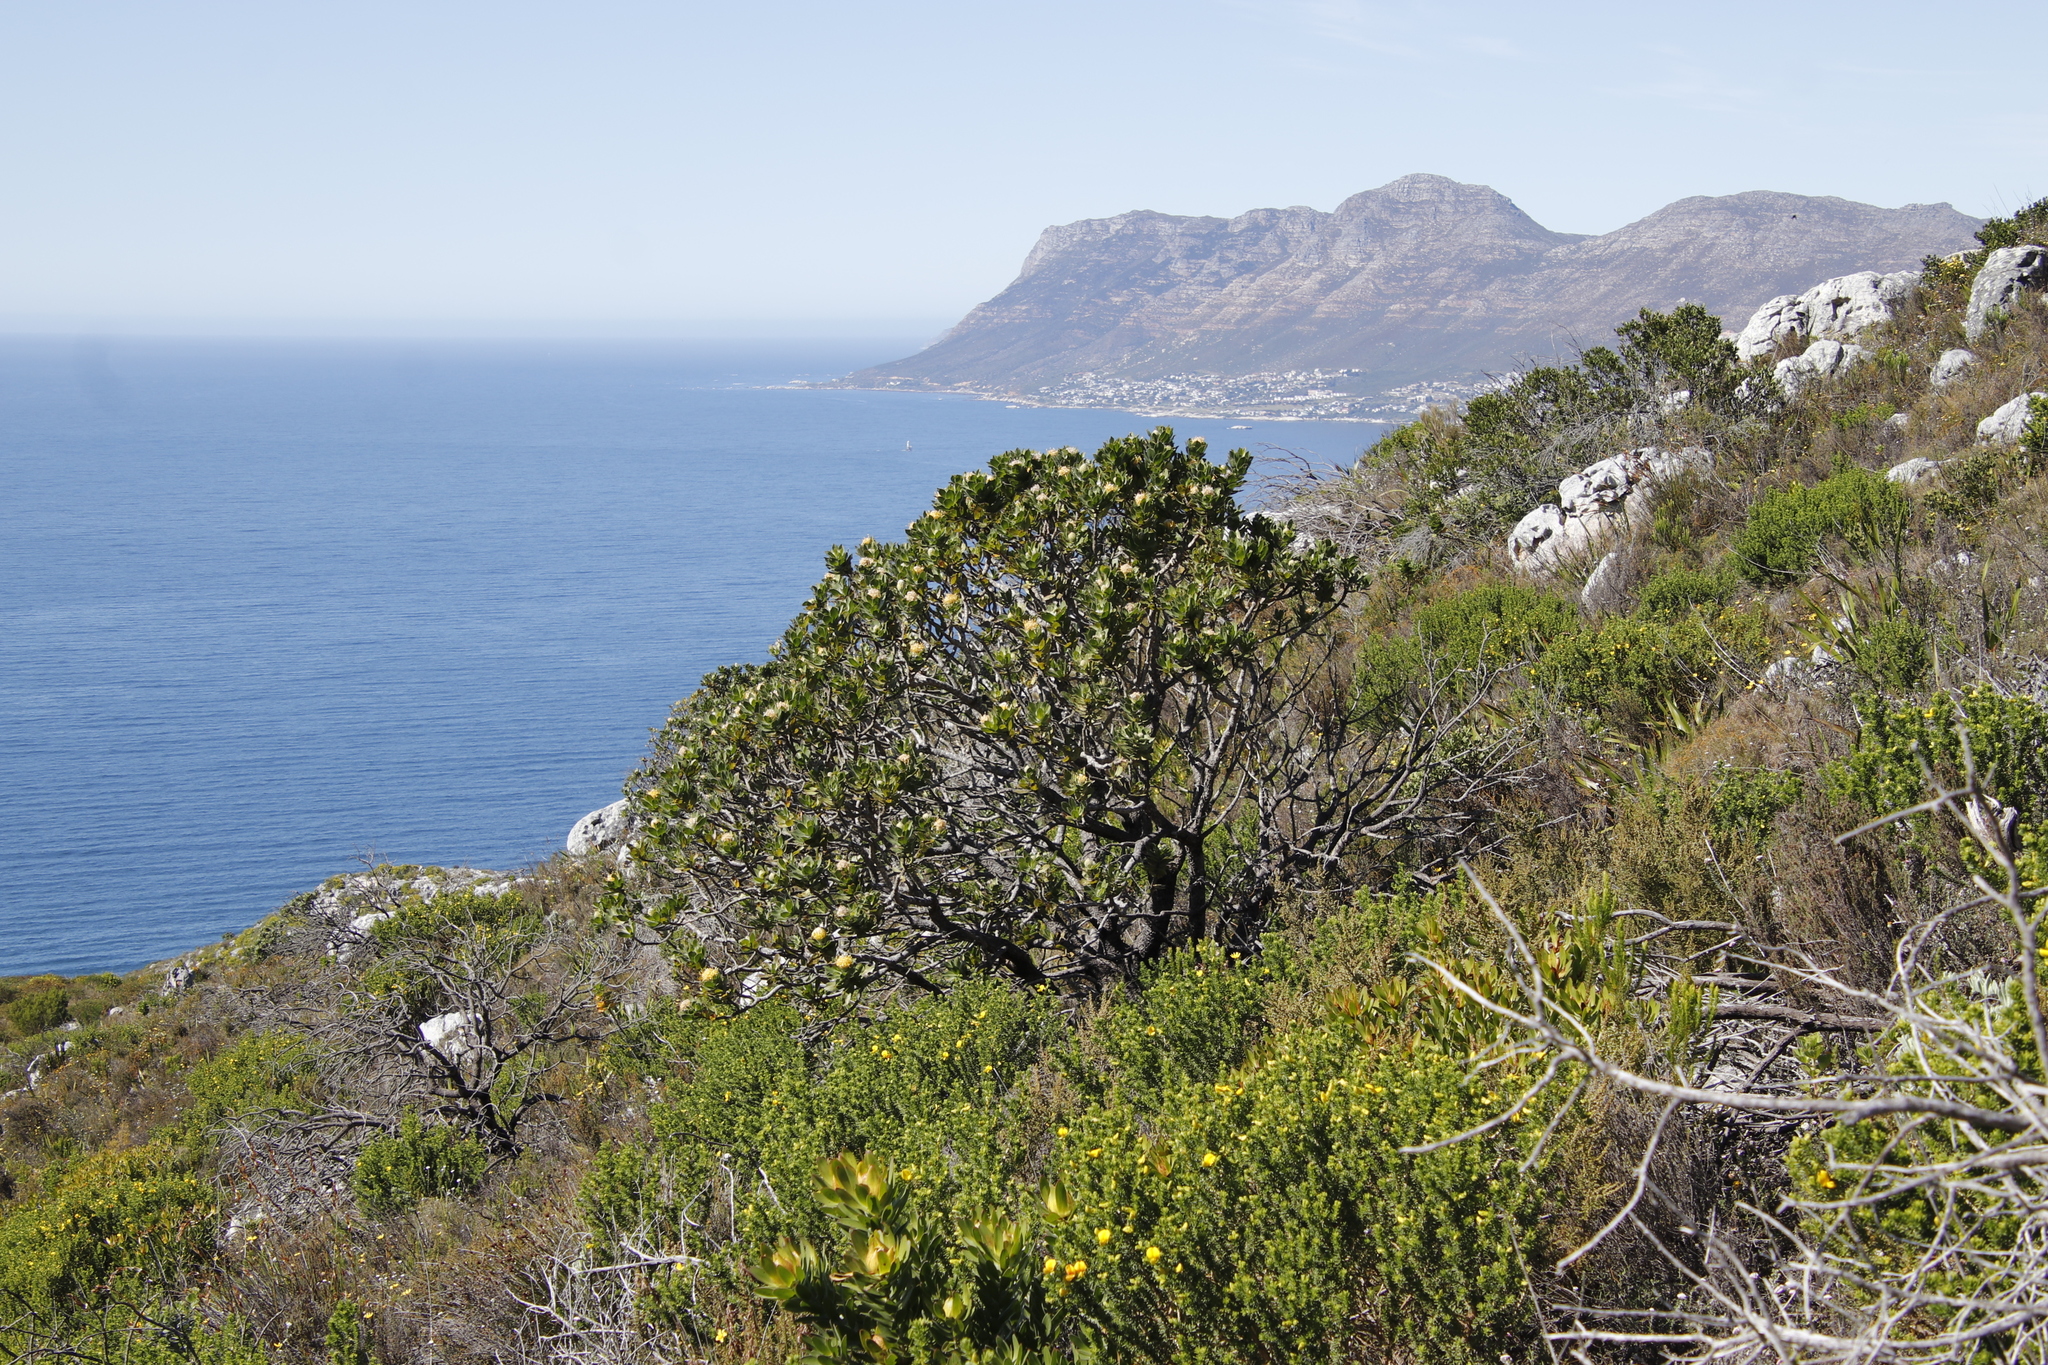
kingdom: Plantae
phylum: Tracheophyta
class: Magnoliopsida
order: Proteales
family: Proteaceae
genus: Leucospermum
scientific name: Leucospermum conocarpodendron
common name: Tree pincushion
